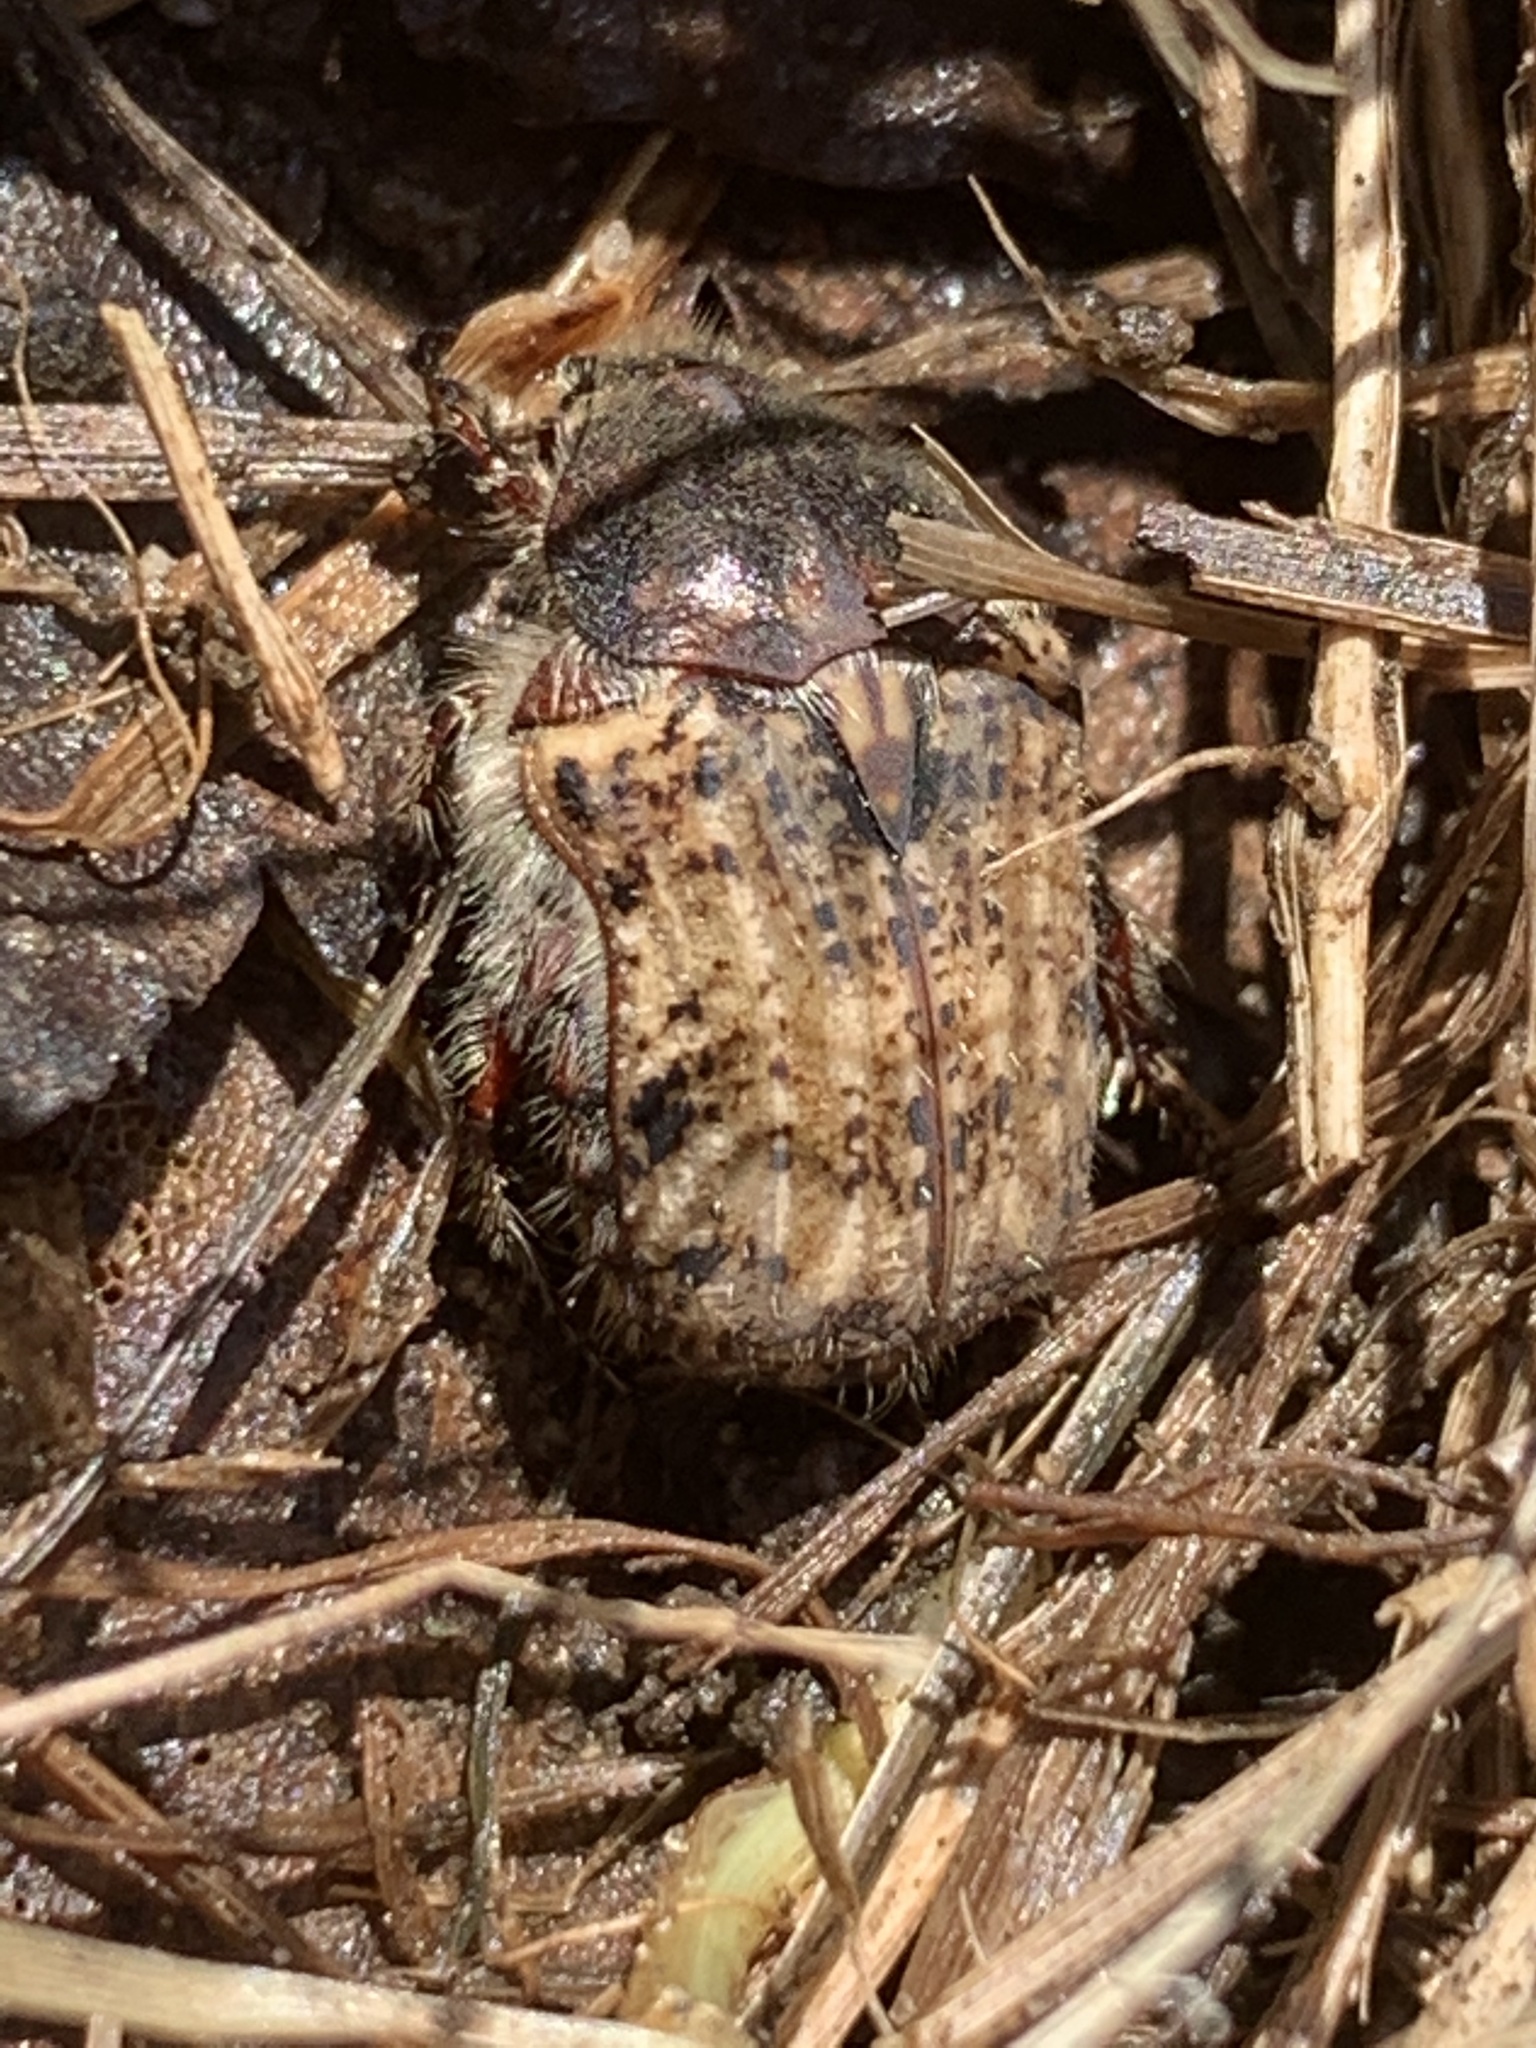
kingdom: Animalia
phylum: Arthropoda
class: Insecta
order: Coleoptera
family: Scarabaeidae
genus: Euphoria
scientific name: Euphoria inda
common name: Bumble flower beetle
